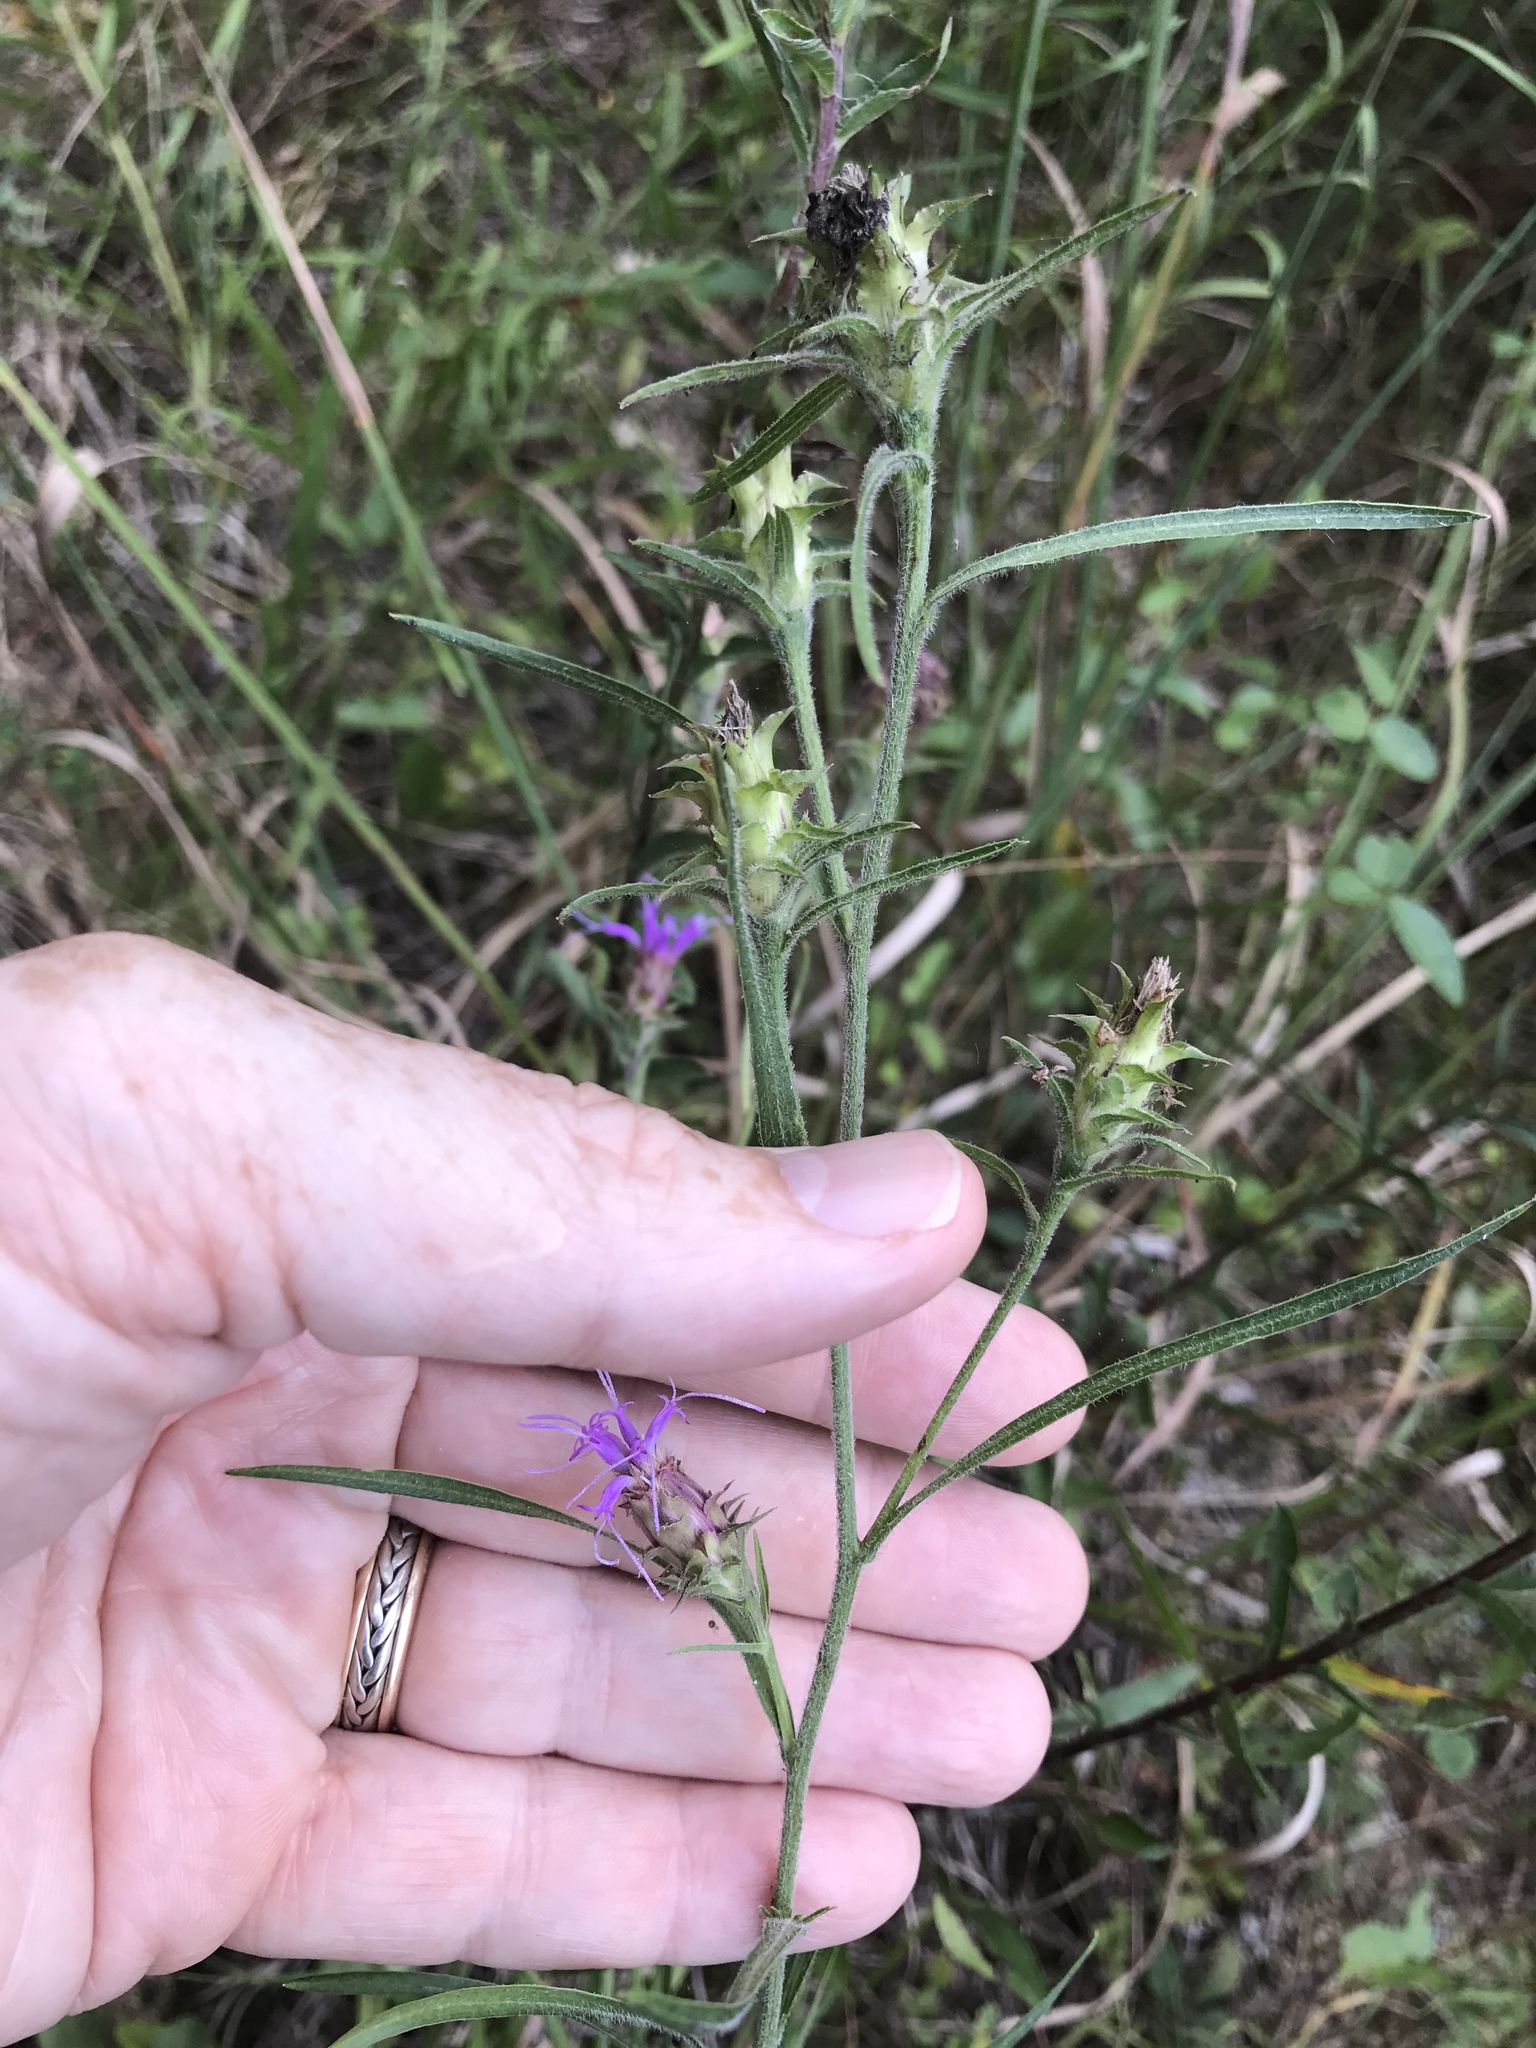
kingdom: Plantae
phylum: Tracheophyta
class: Magnoliopsida
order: Asterales
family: Asteraceae
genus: Liatris
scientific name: Liatris squarrosa
